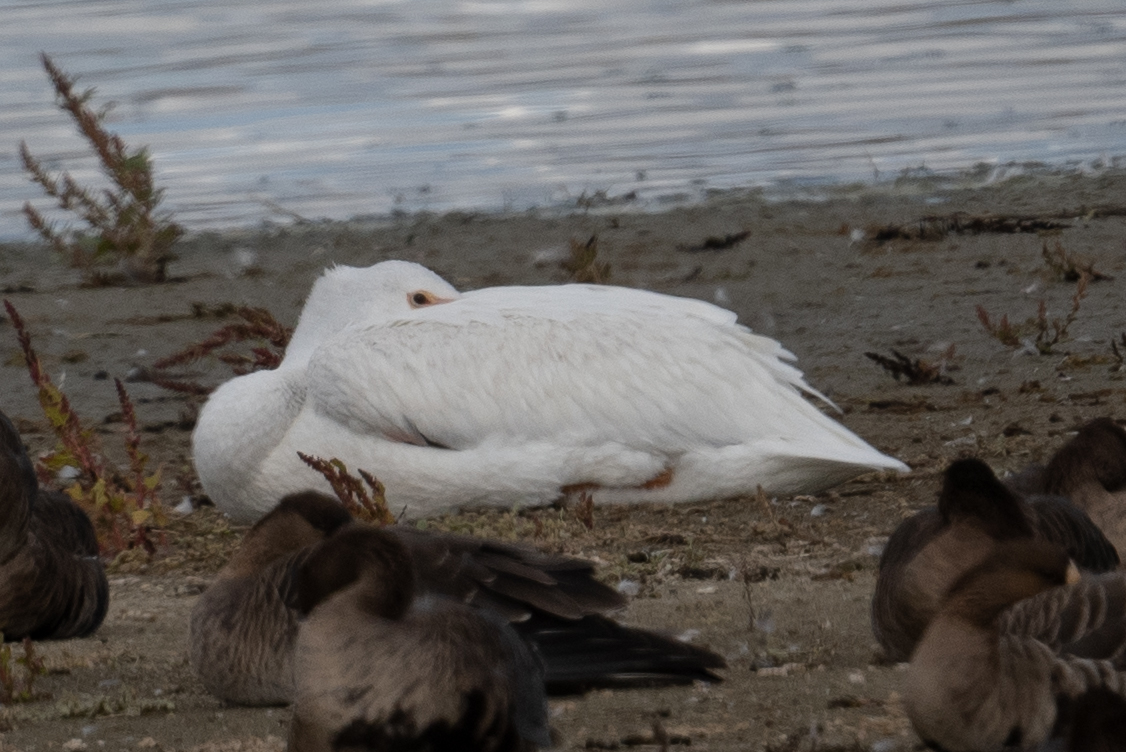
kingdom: Animalia
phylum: Chordata
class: Aves
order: Pelecaniformes
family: Pelecanidae
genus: Pelecanus
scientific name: Pelecanus erythrorhynchos
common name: American white pelican
